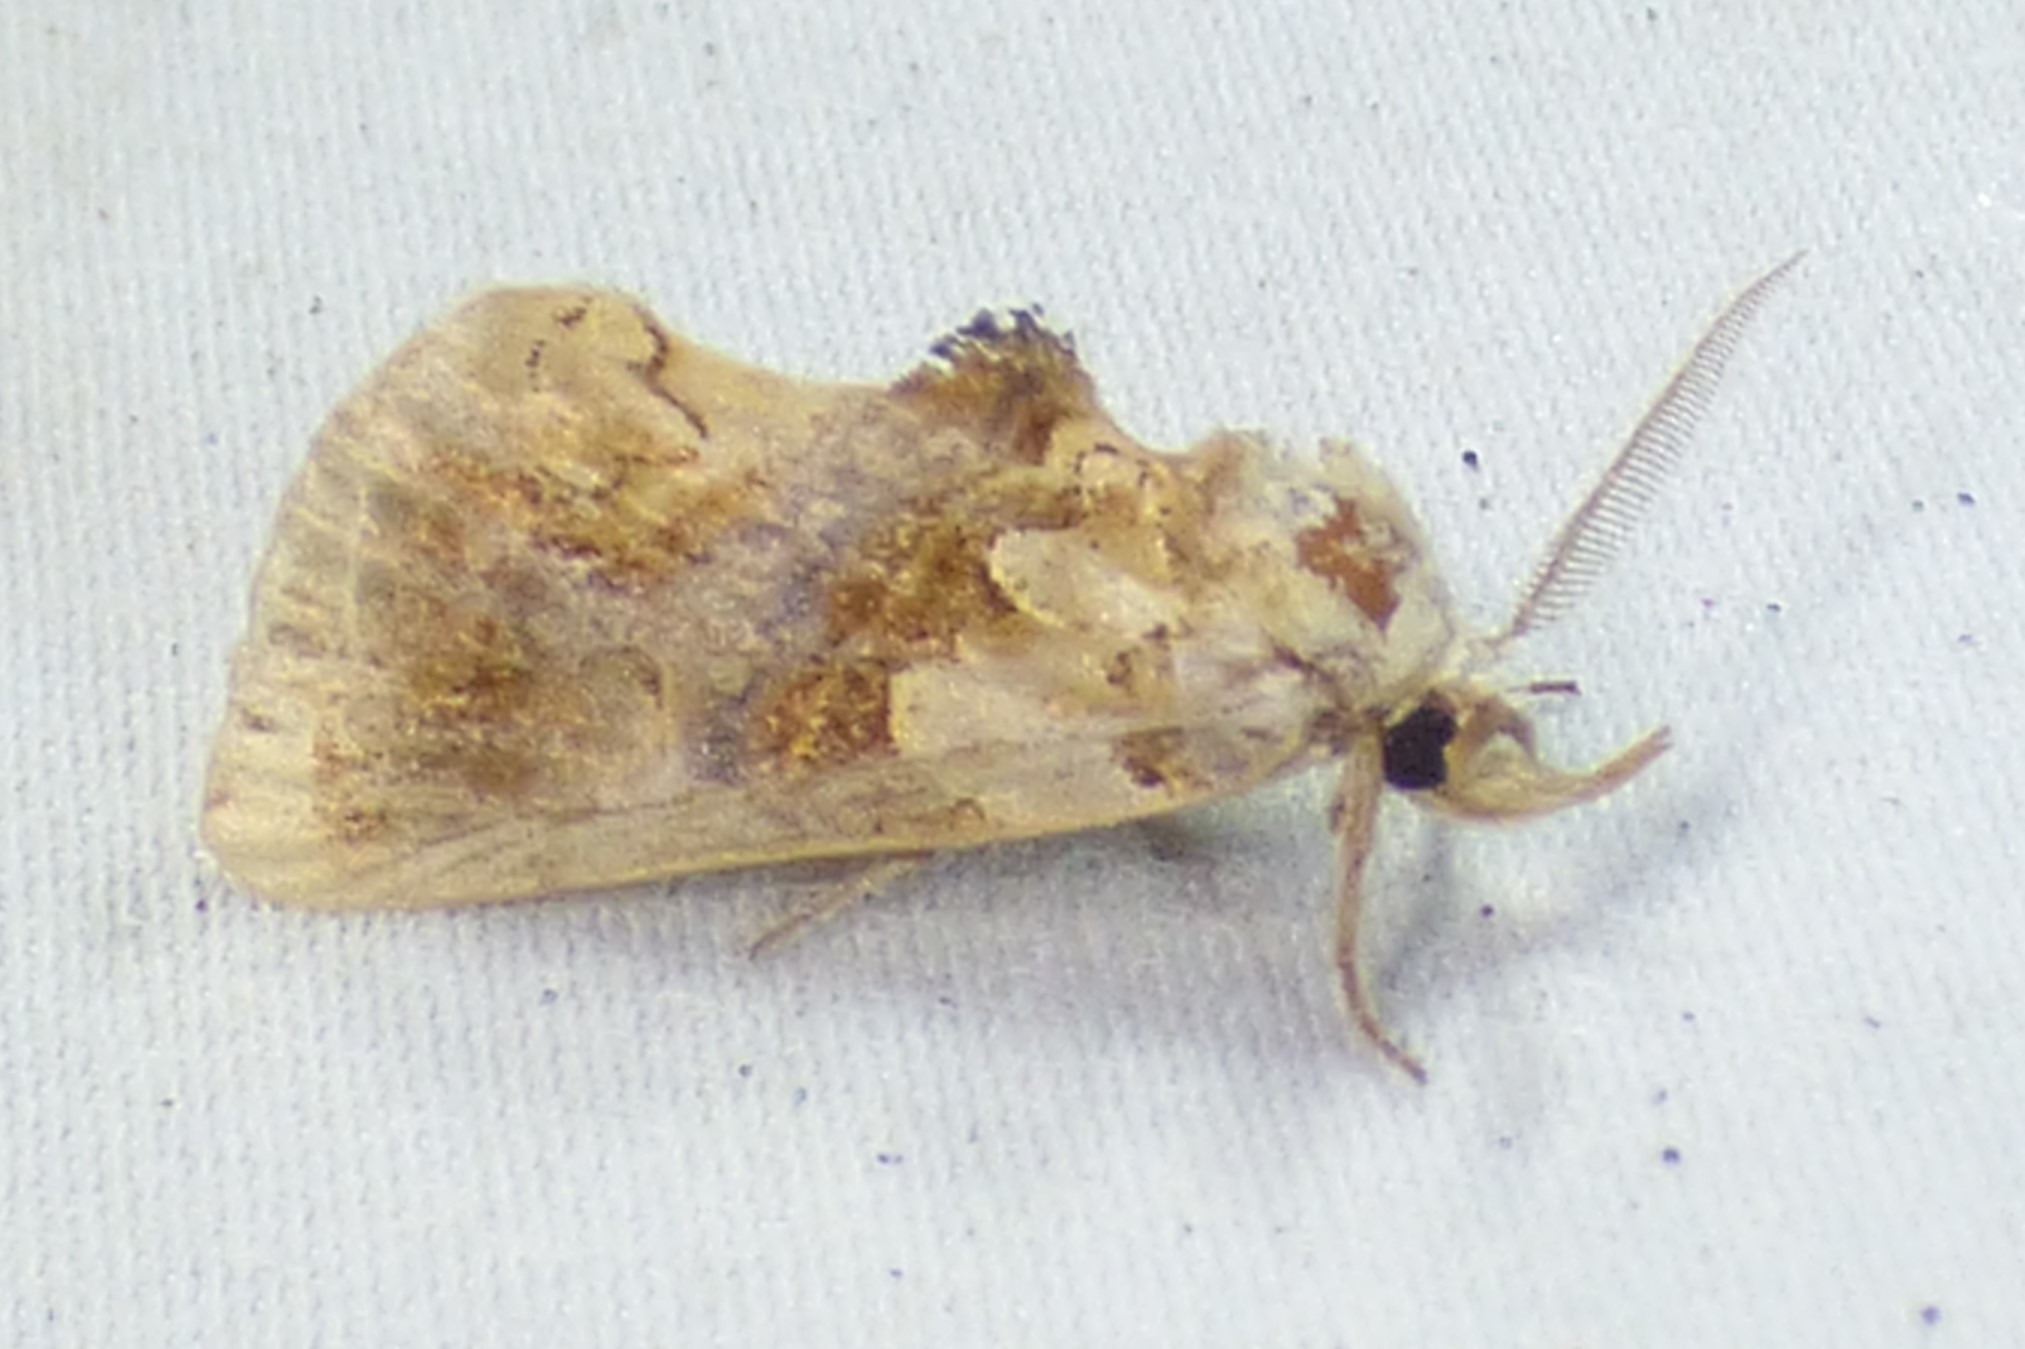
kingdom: Animalia
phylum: Arthropoda
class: Insecta
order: Lepidoptera
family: Erebidae
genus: Plusiodonta
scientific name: Plusiodonta compressipalpis
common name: Moonseed moth
